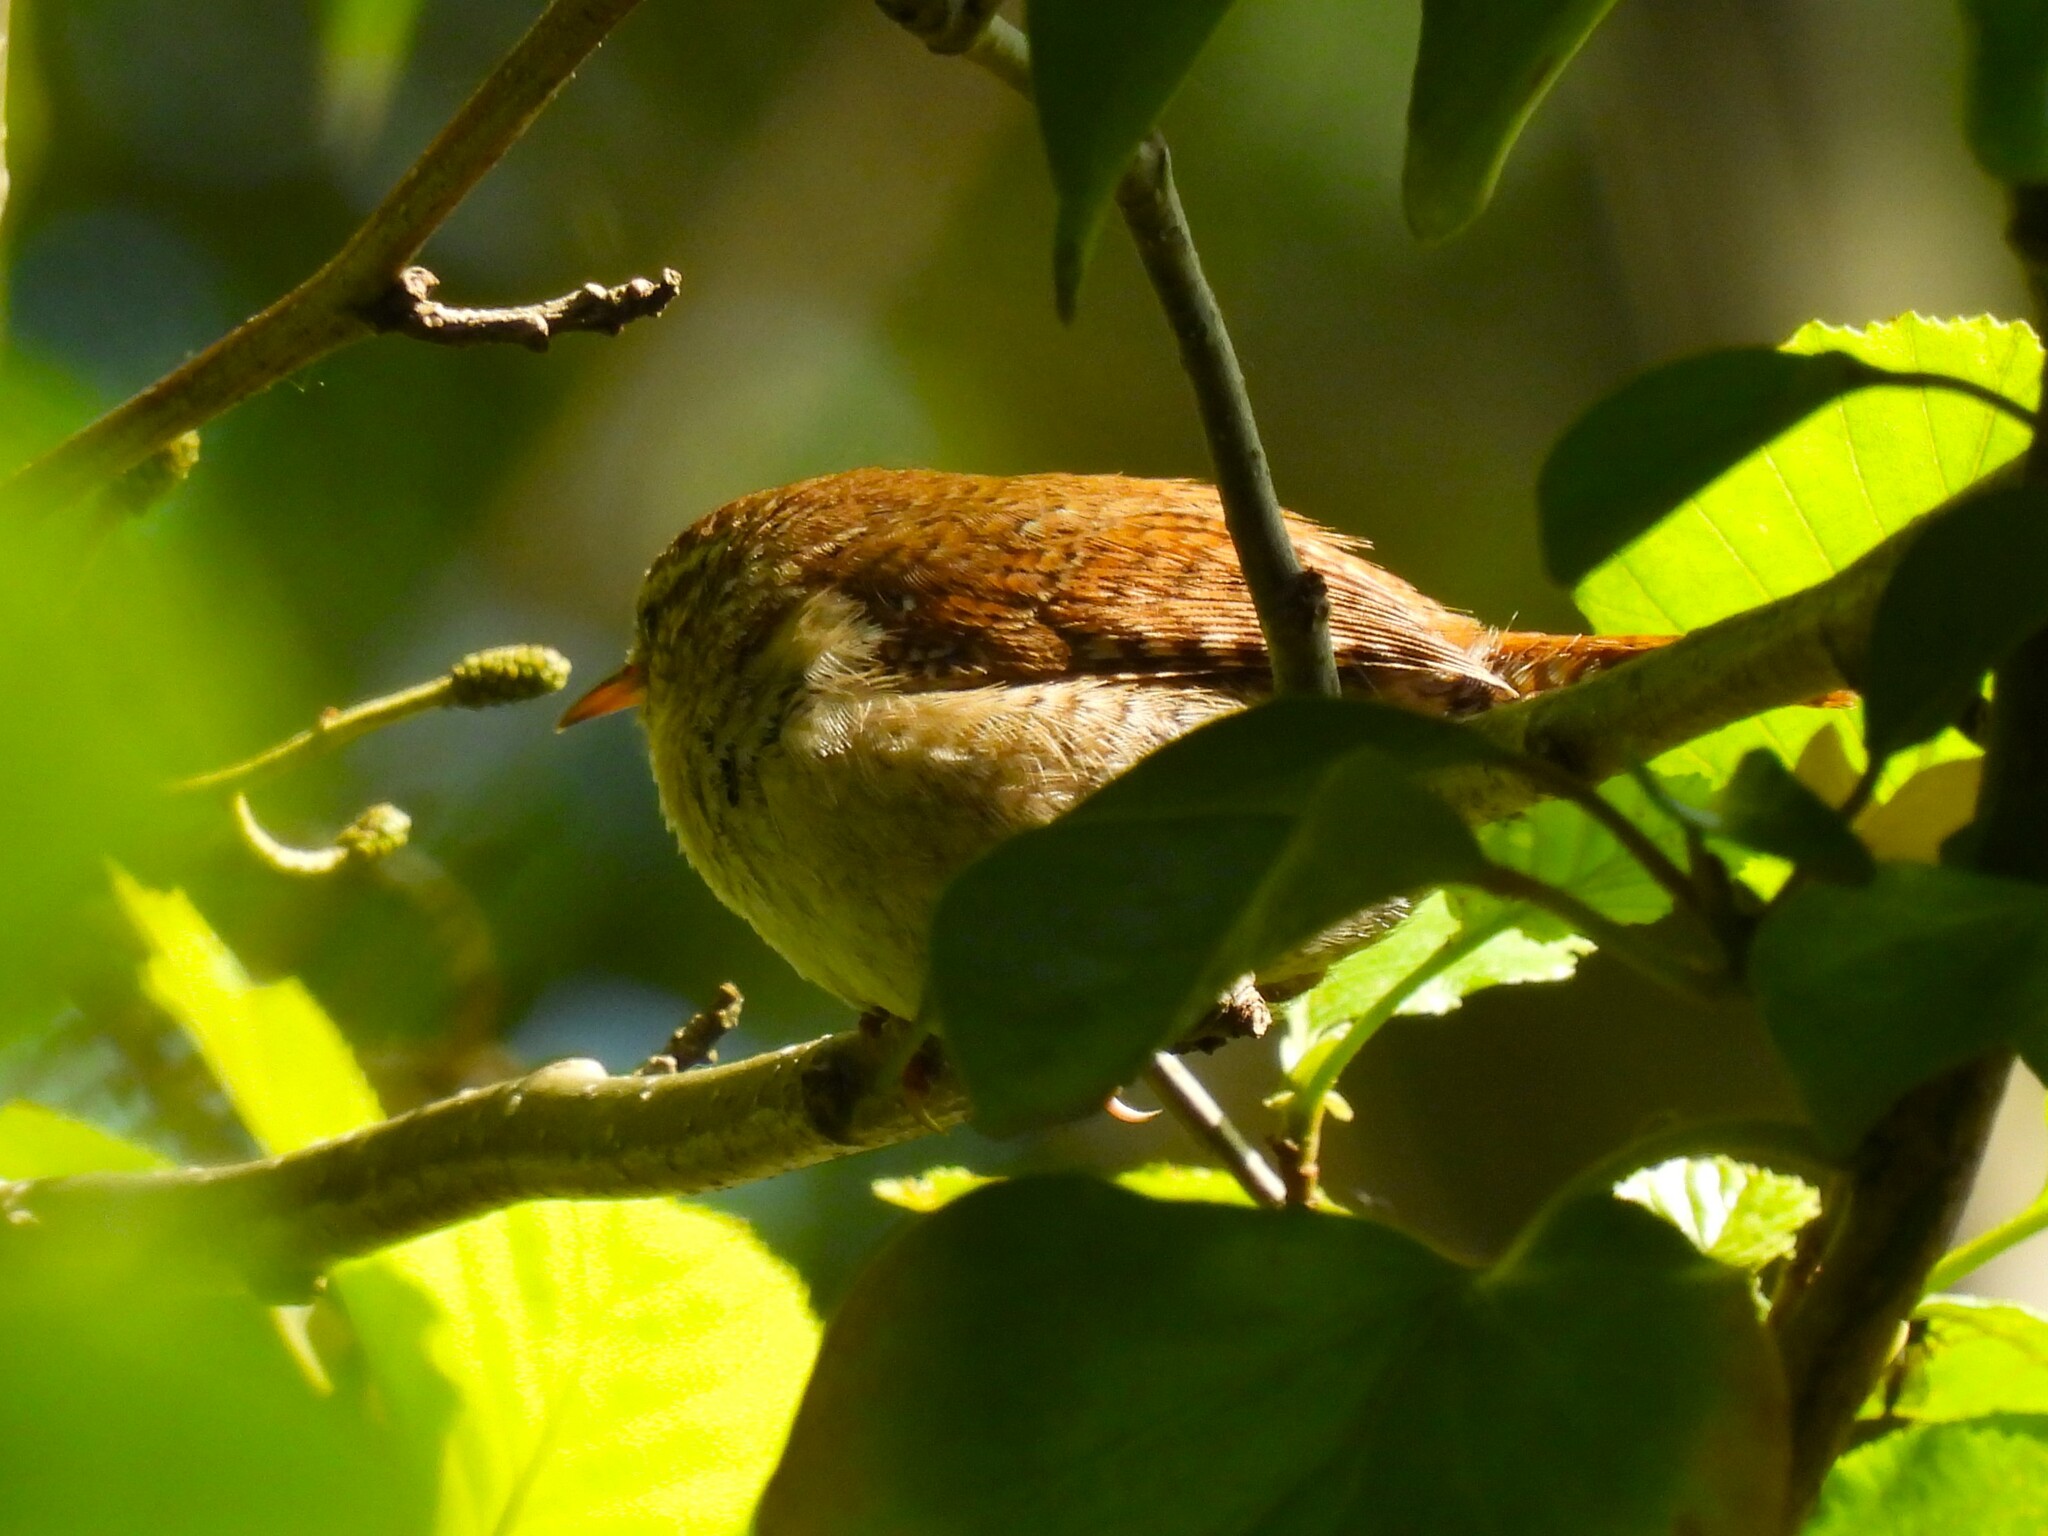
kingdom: Animalia
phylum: Chordata
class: Aves
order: Passeriformes
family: Troglodytidae
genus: Troglodytes
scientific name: Troglodytes troglodytes
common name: Eurasian wren
